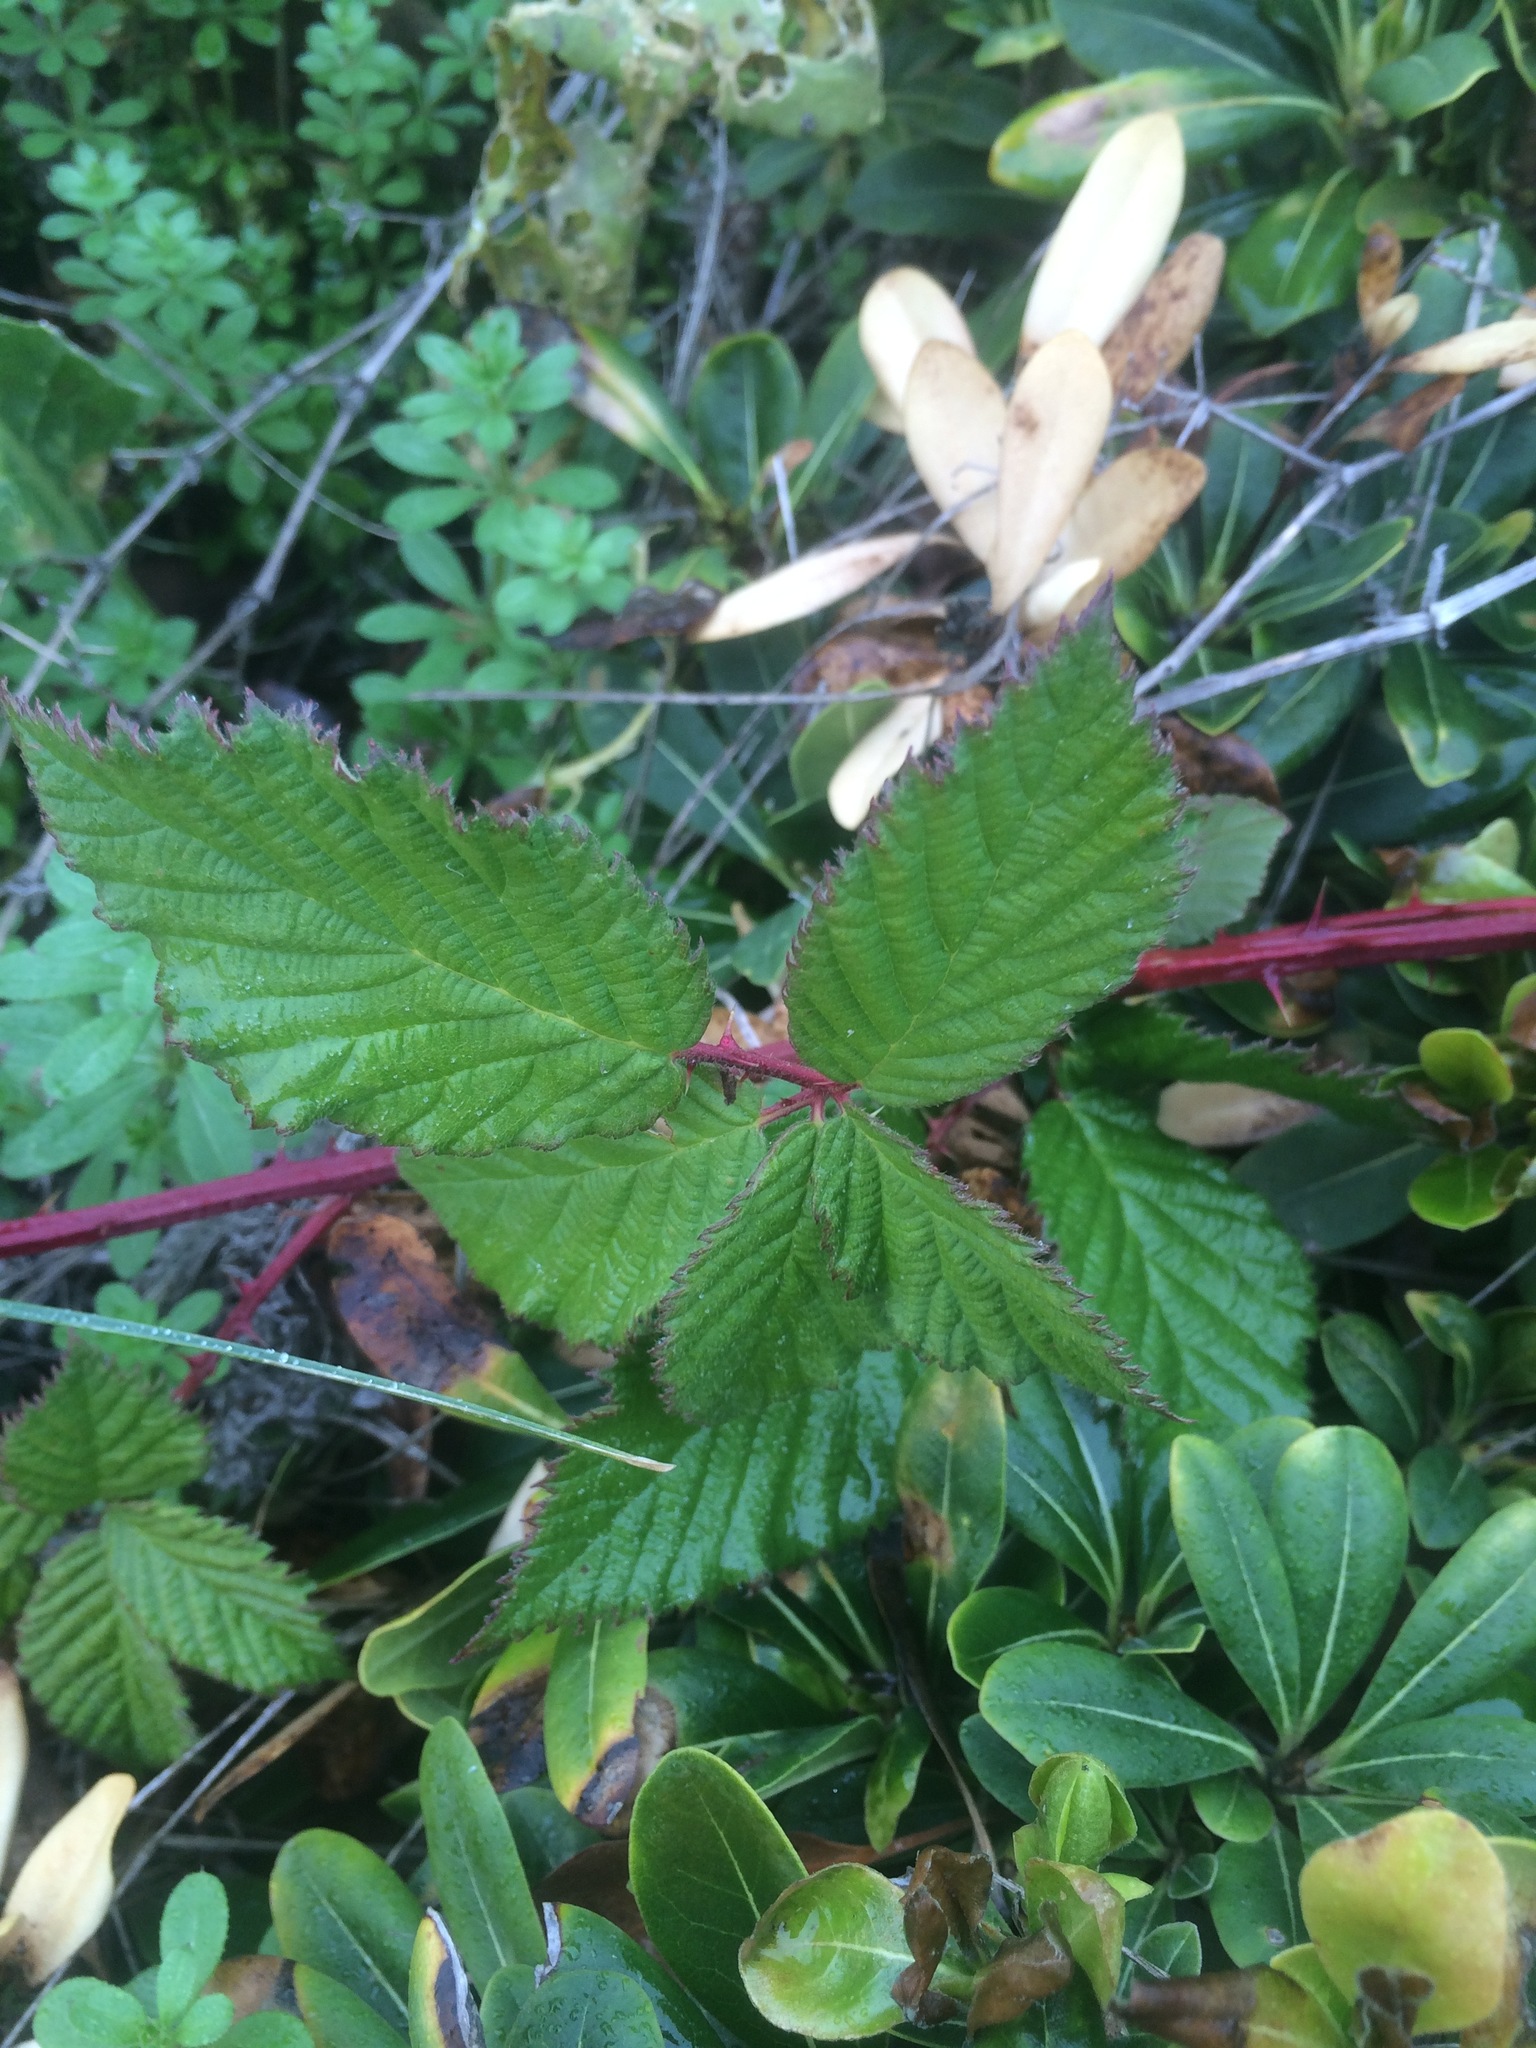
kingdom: Plantae
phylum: Tracheophyta
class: Magnoliopsida
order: Rosales
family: Rosaceae
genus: Rubus
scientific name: Rubus bifrons
